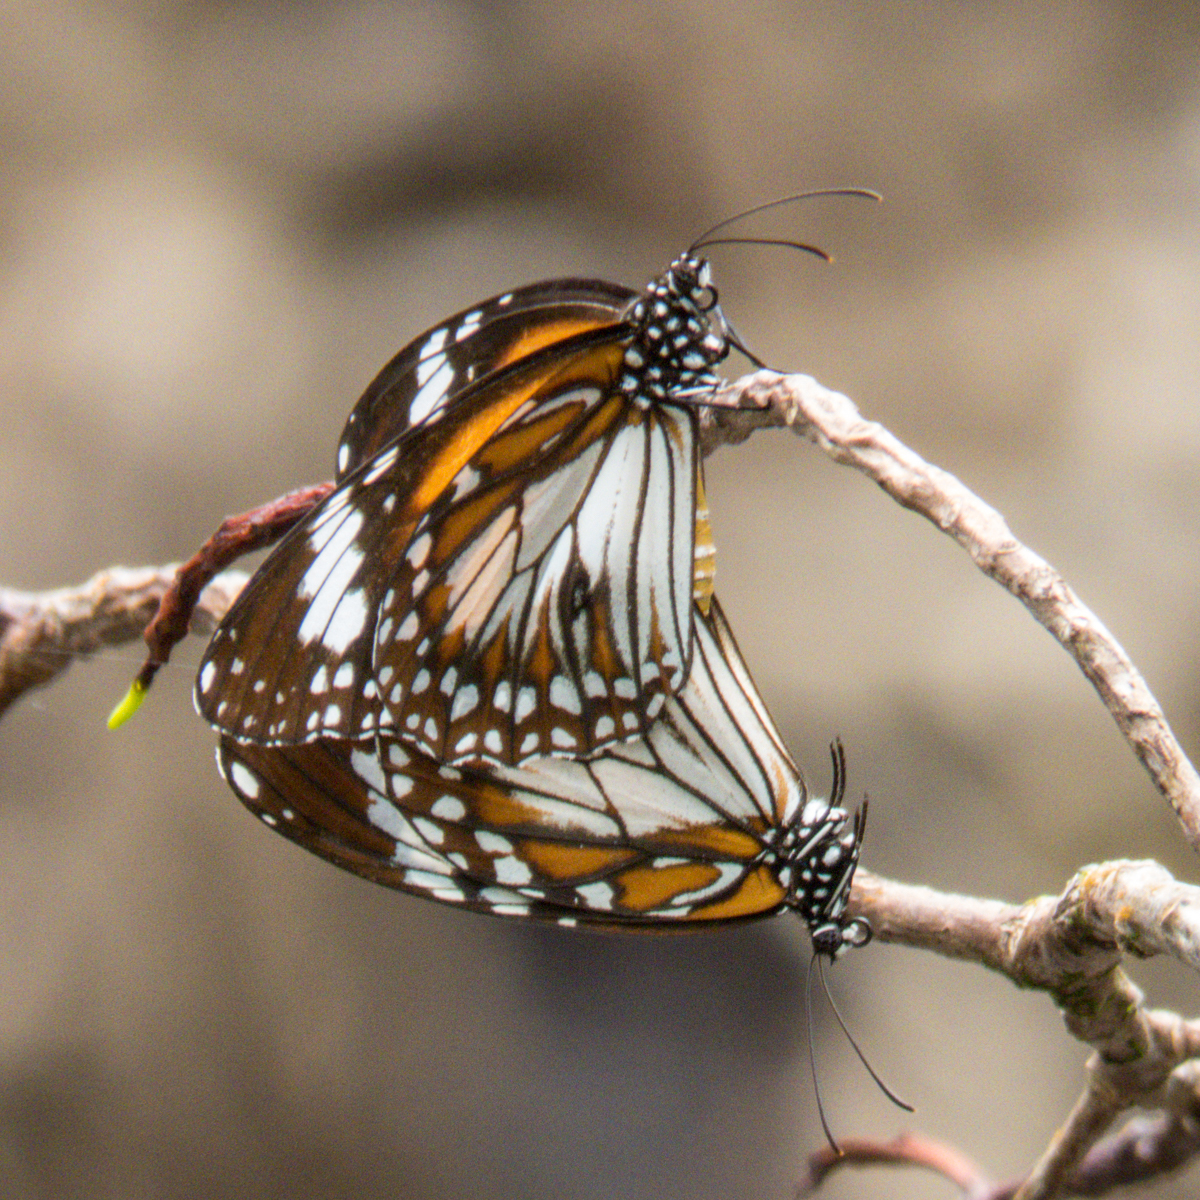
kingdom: Animalia
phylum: Arthropoda
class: Insecta
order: Lepidoptera
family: Nymphalidae
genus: Danaus
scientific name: Danaus affinis
